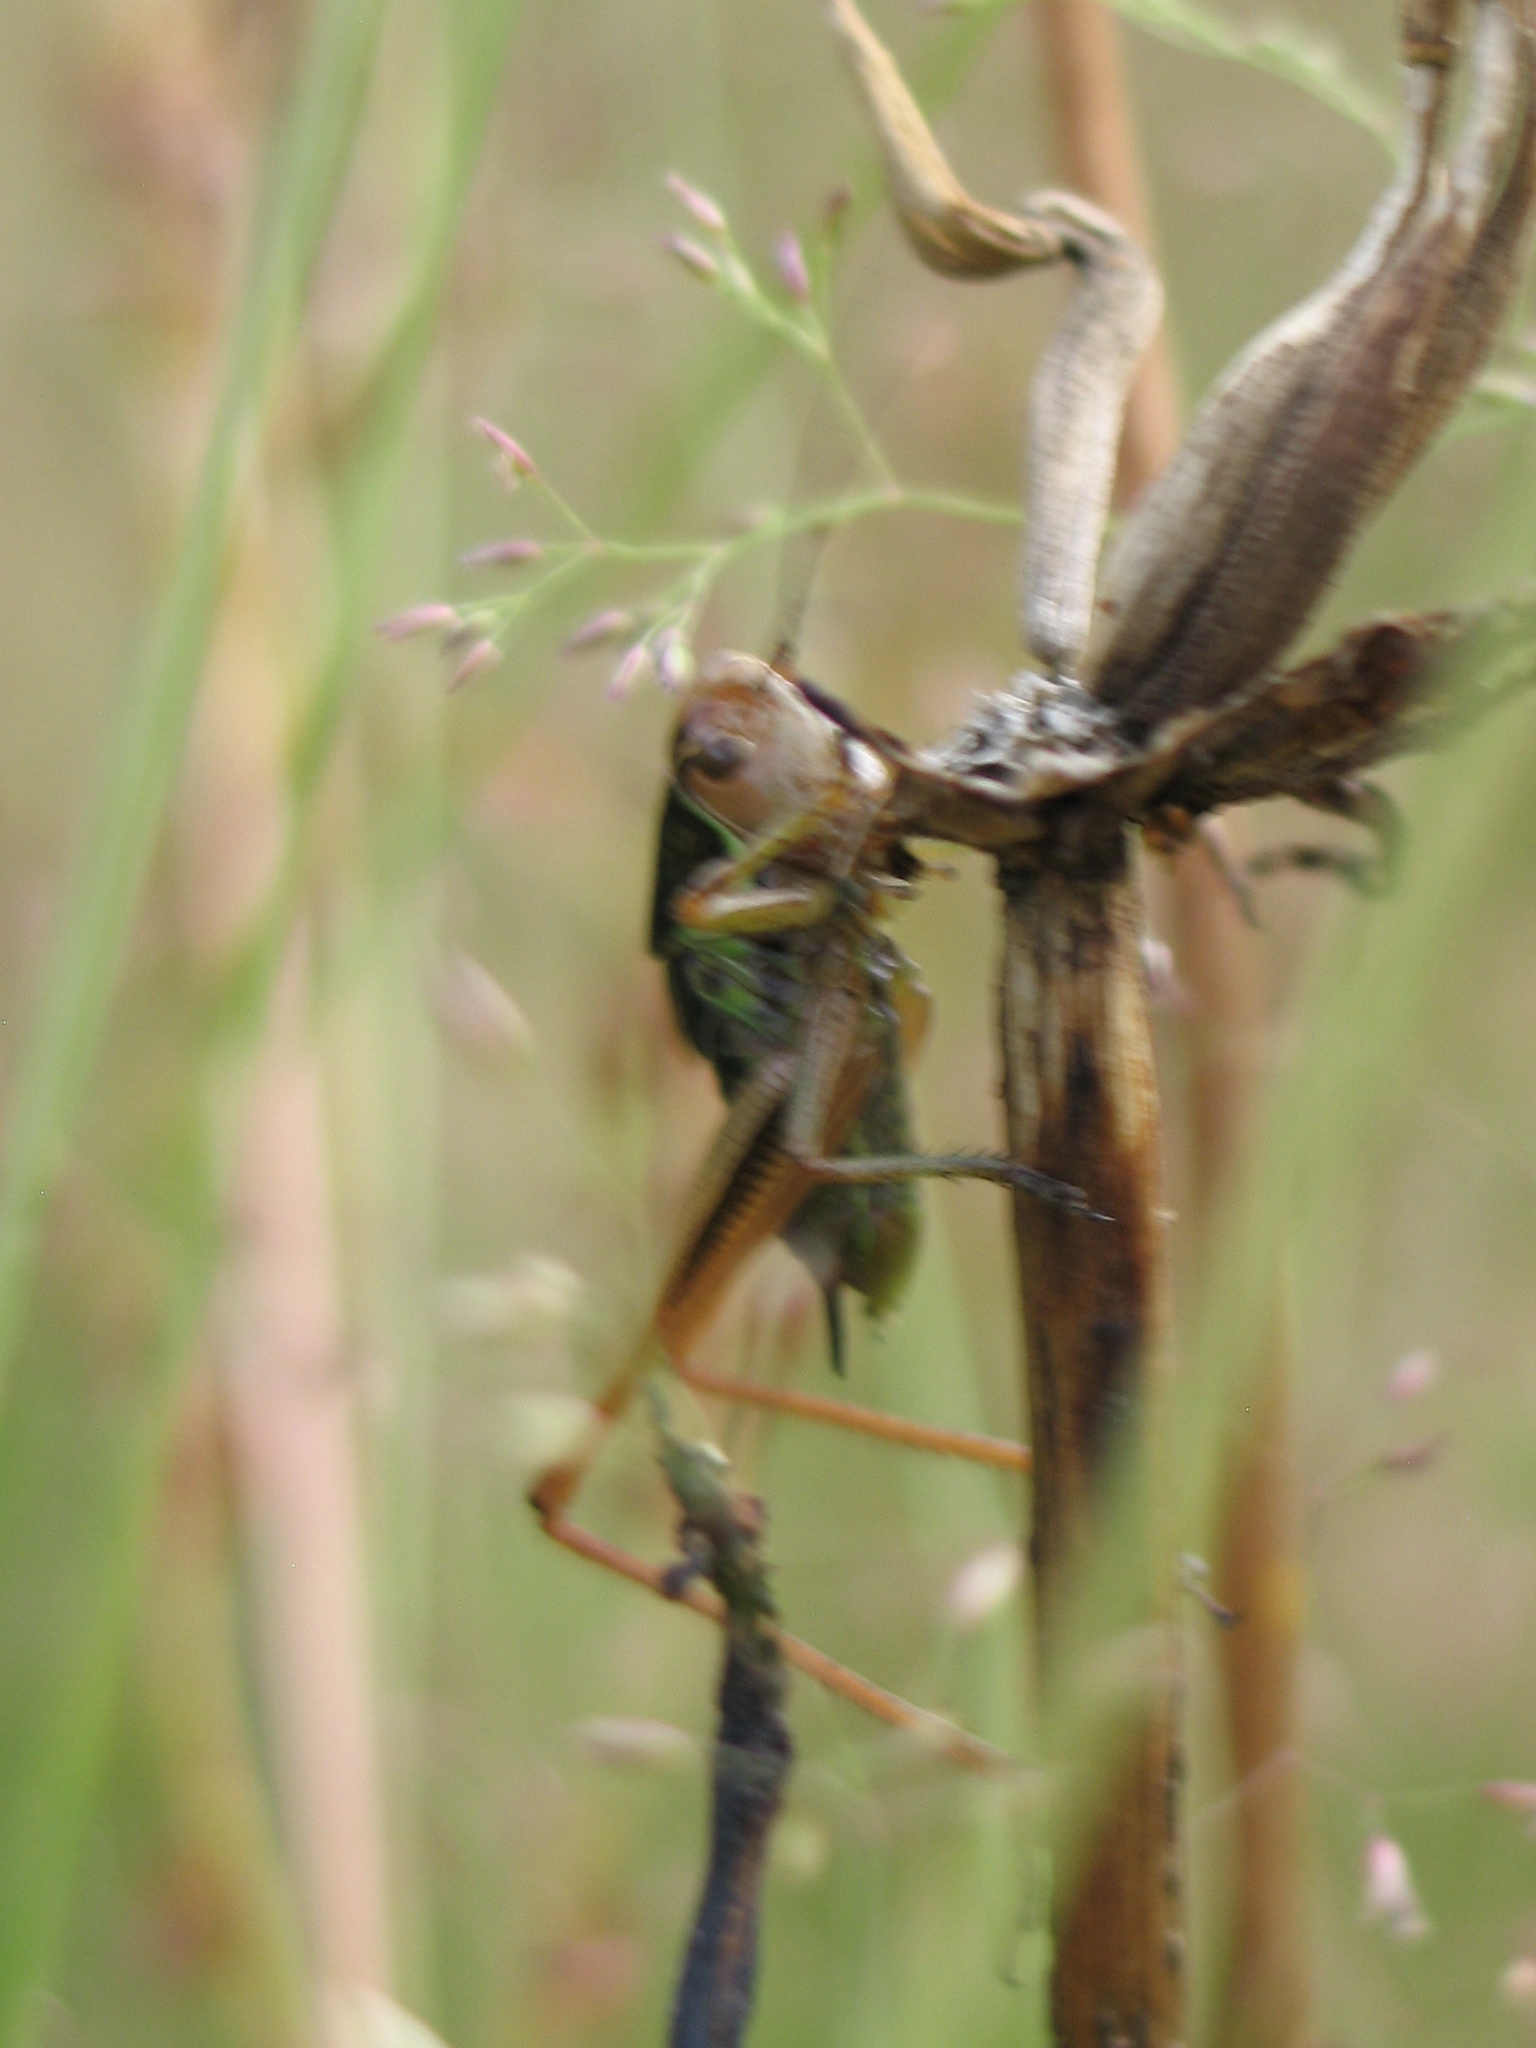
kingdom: Animalia
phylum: Arthropoda
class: Insecta
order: Orthoptera
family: Tettigoniidae
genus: Roeseliana
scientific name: Roeseliana roeselii
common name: Roesel's bush cricket
